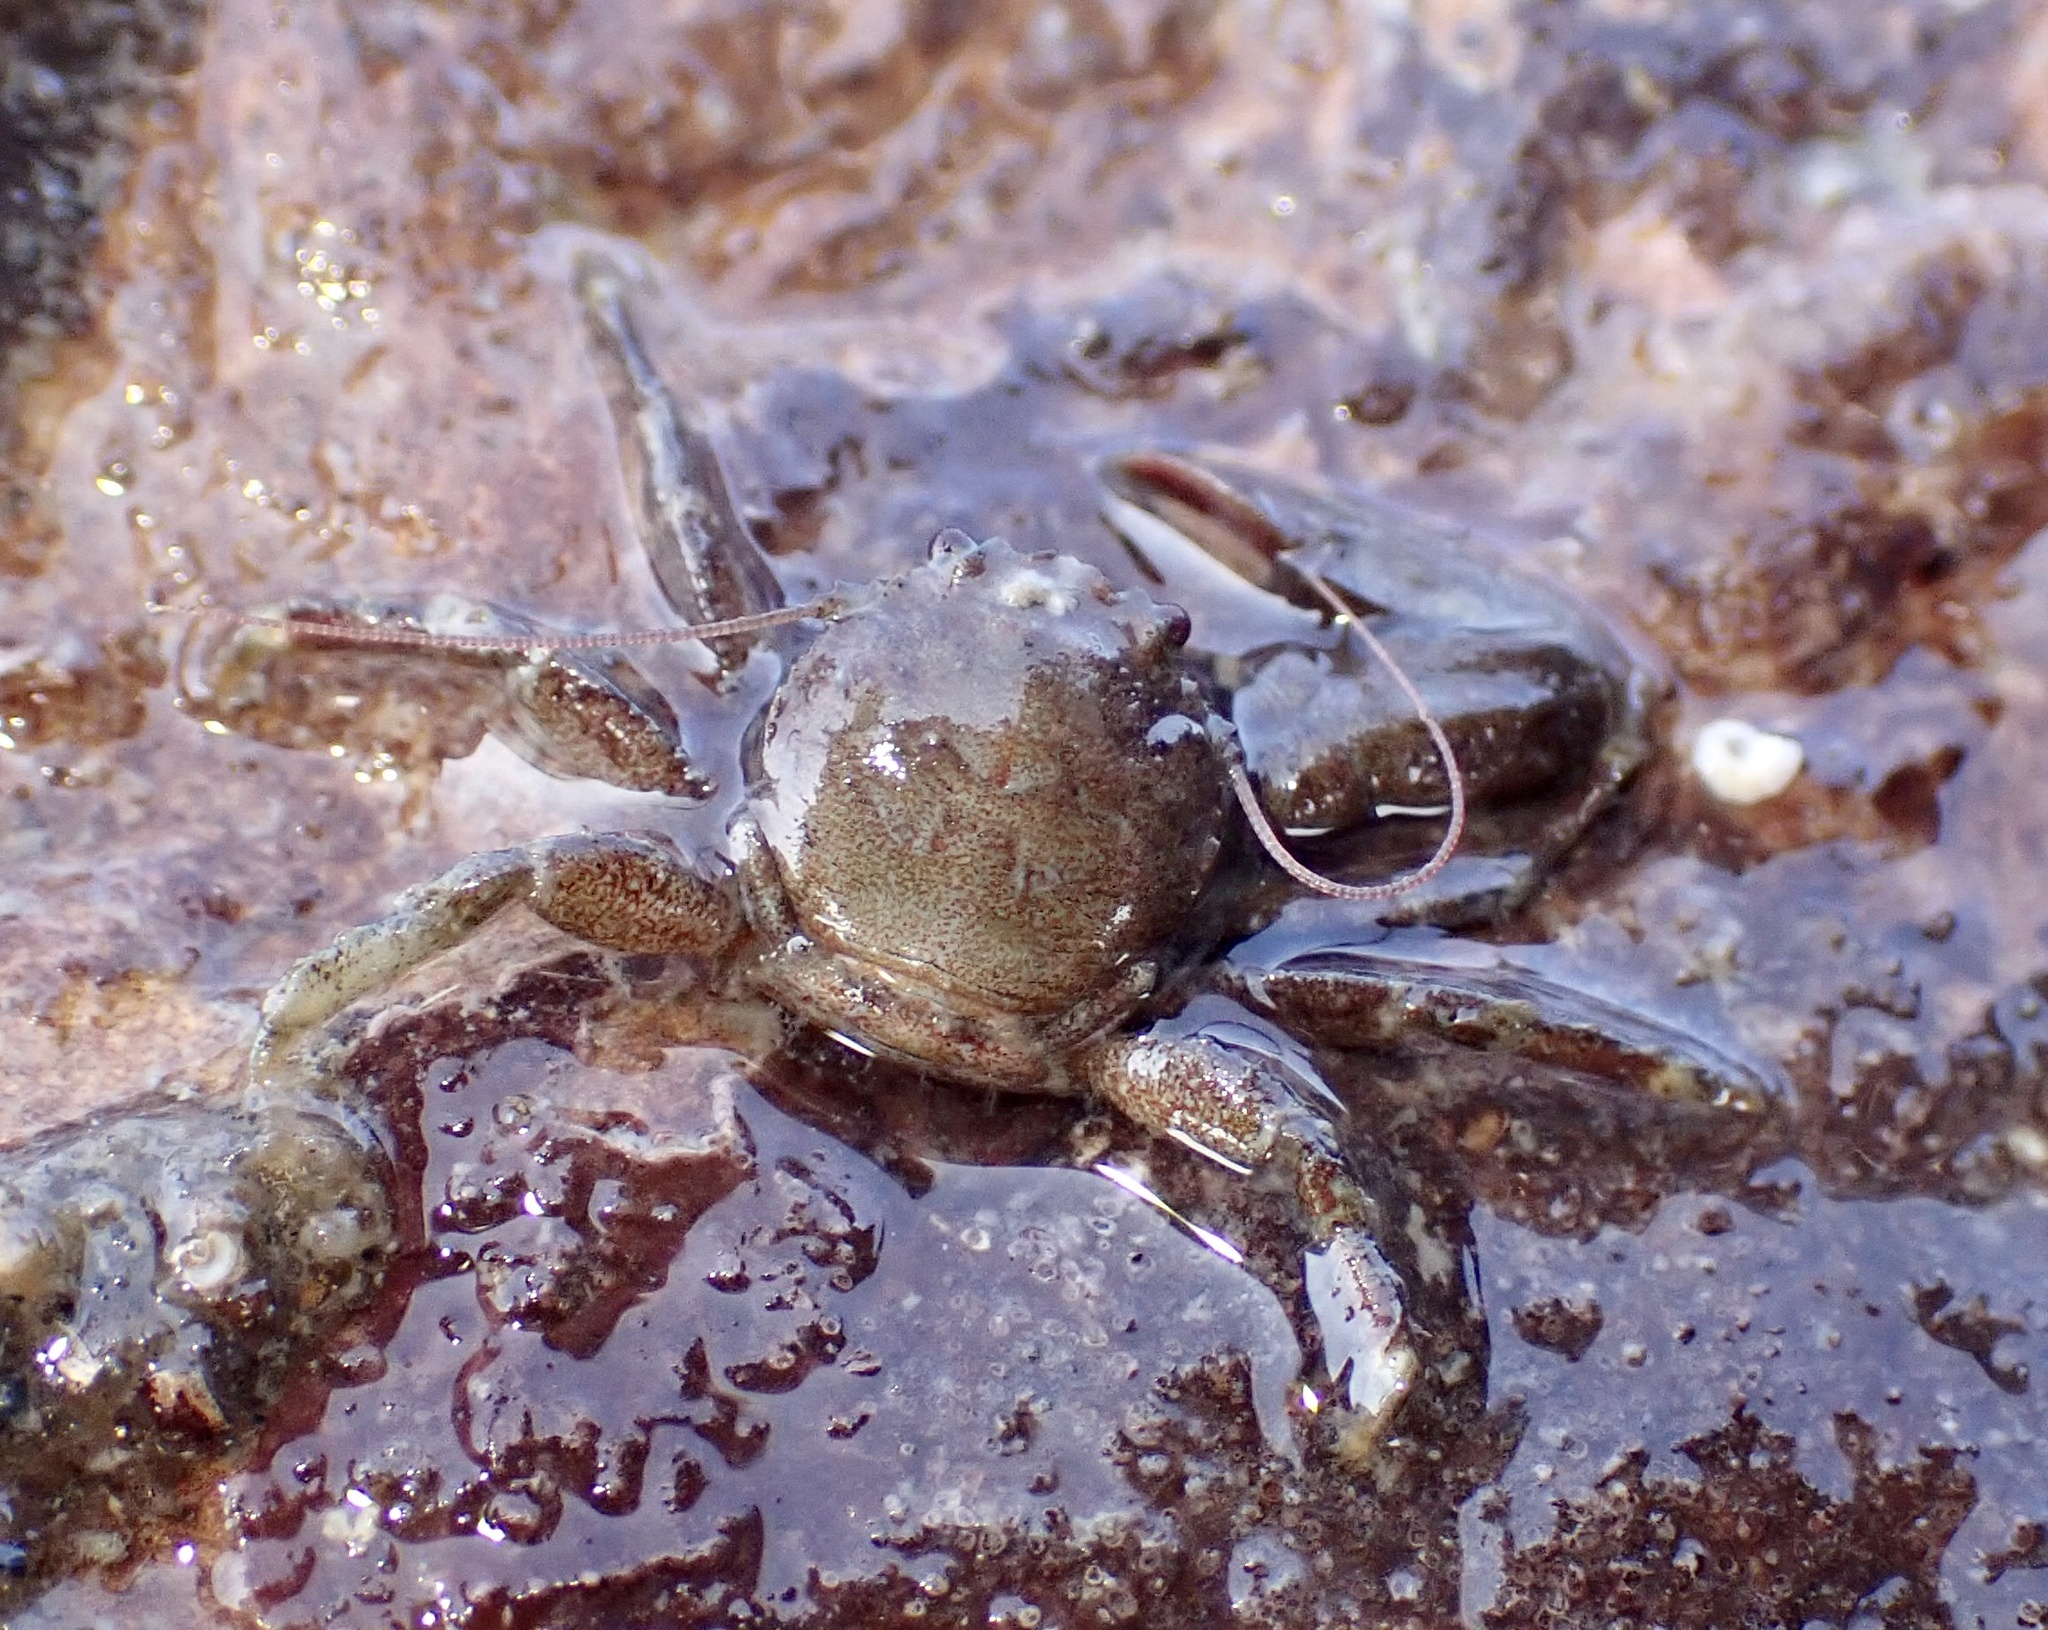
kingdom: Animalia
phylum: Arthropoda
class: Malacostraca
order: Decapoda
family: Porcellanidae
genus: Pisidia
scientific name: Pisidia longicornis
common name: Long clawed porcelain crab
